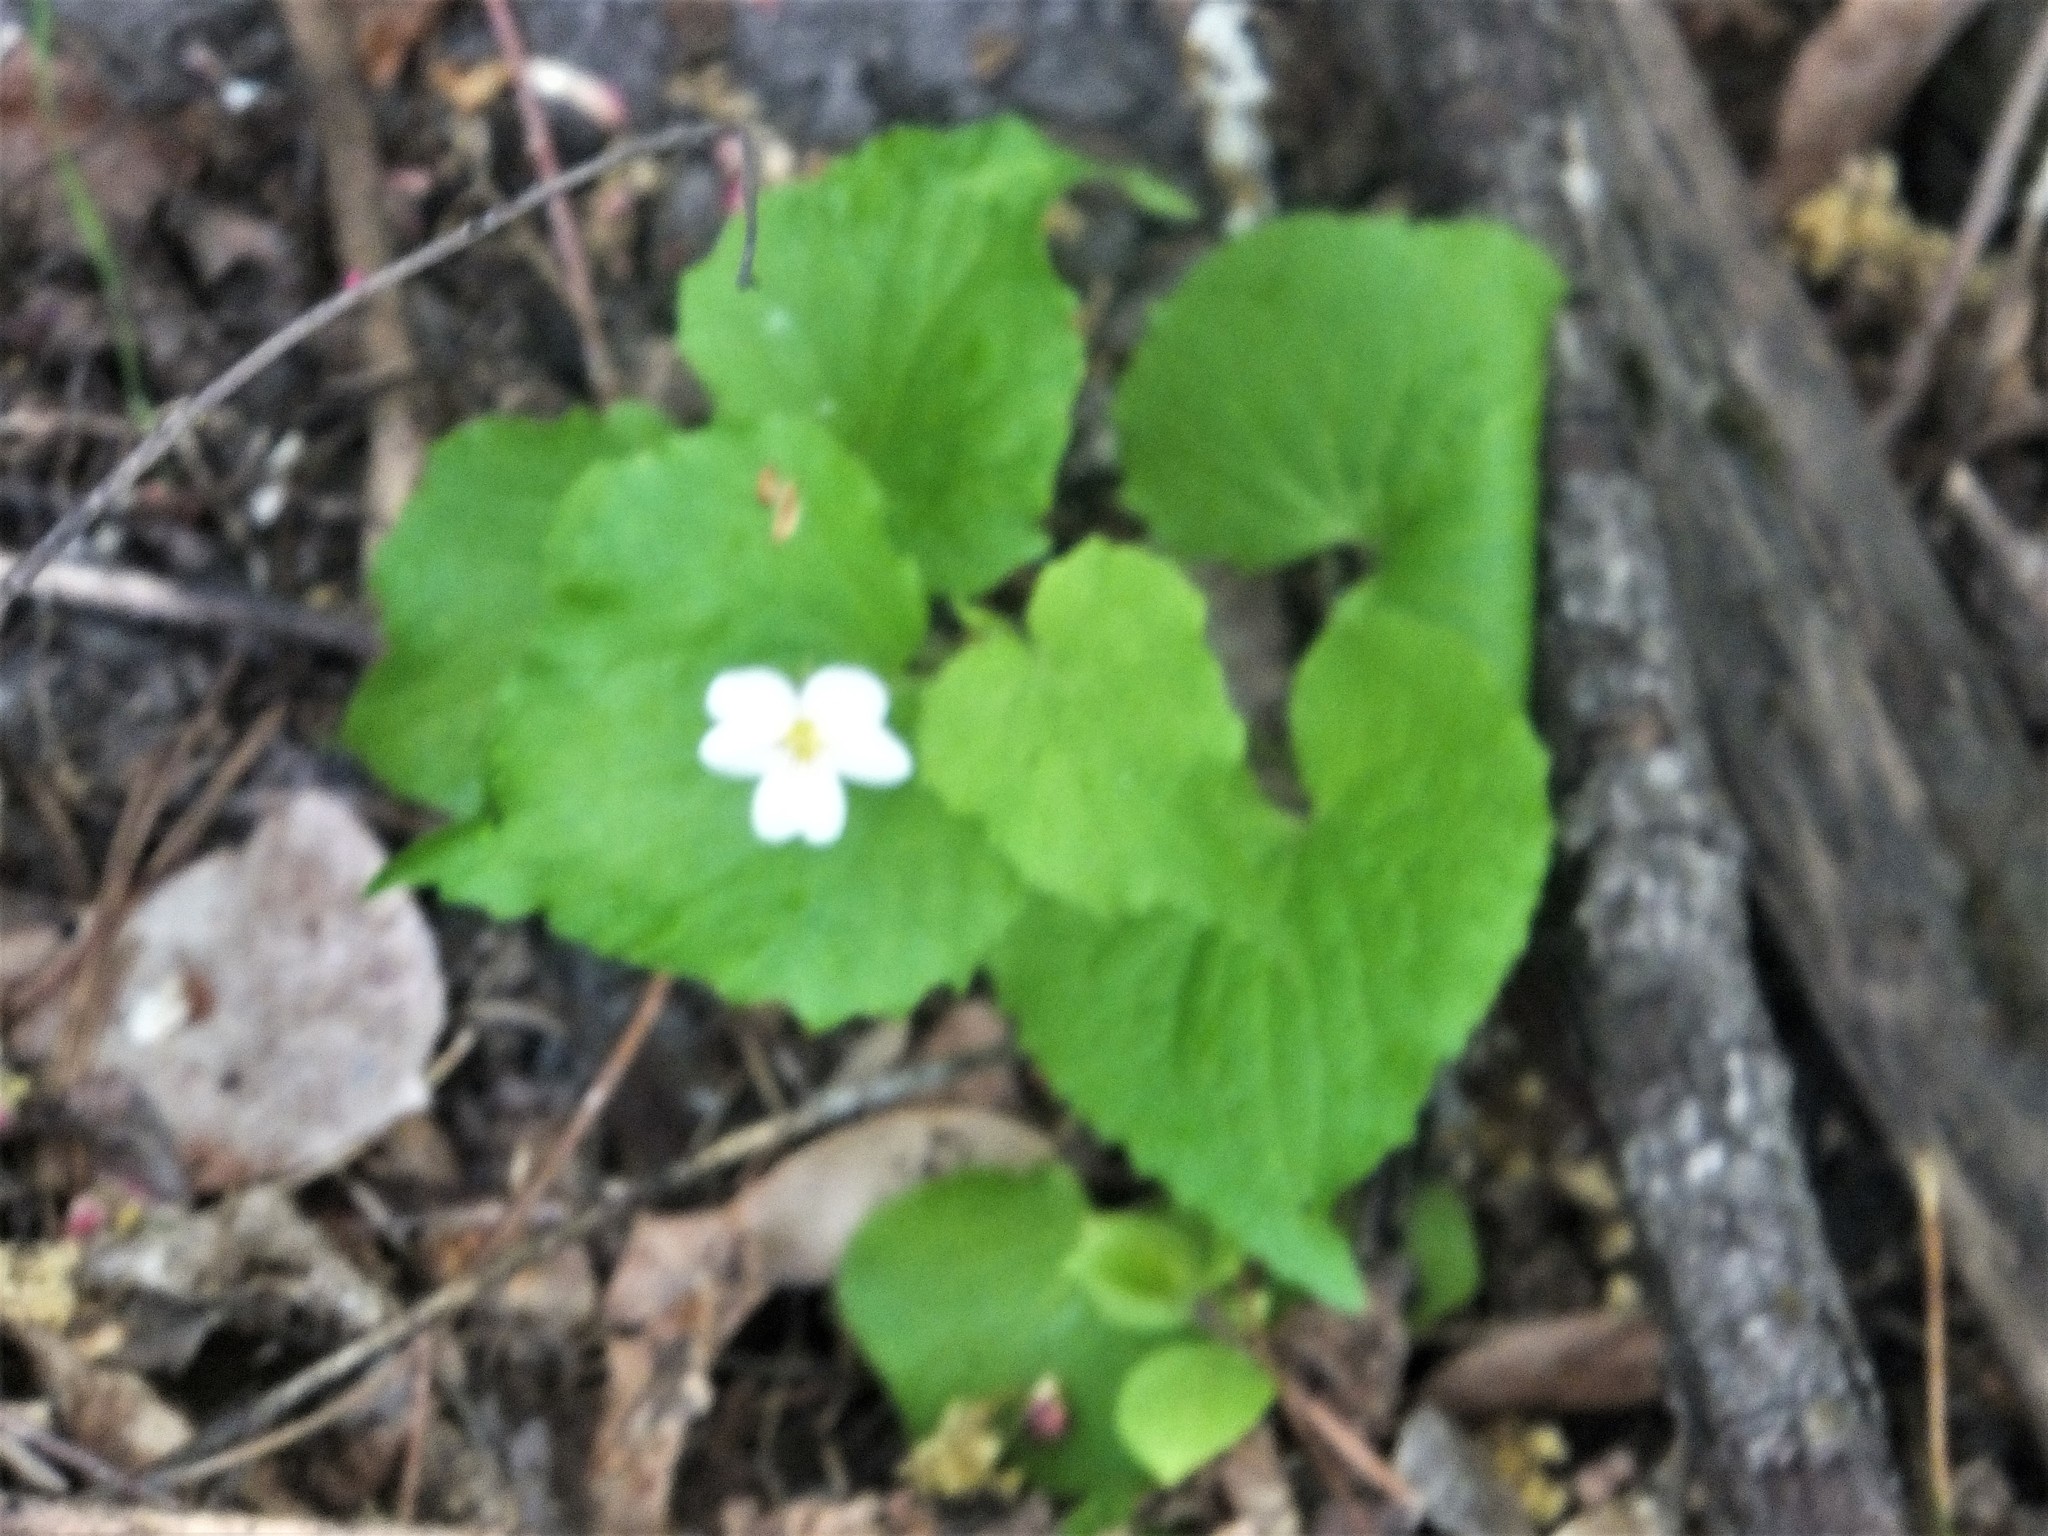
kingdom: Plantae
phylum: Tracheophyta
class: Magnoliopsida
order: Malpighiales
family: Violaceae
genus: Viola
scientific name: Viola canadensis
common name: Canada violet
